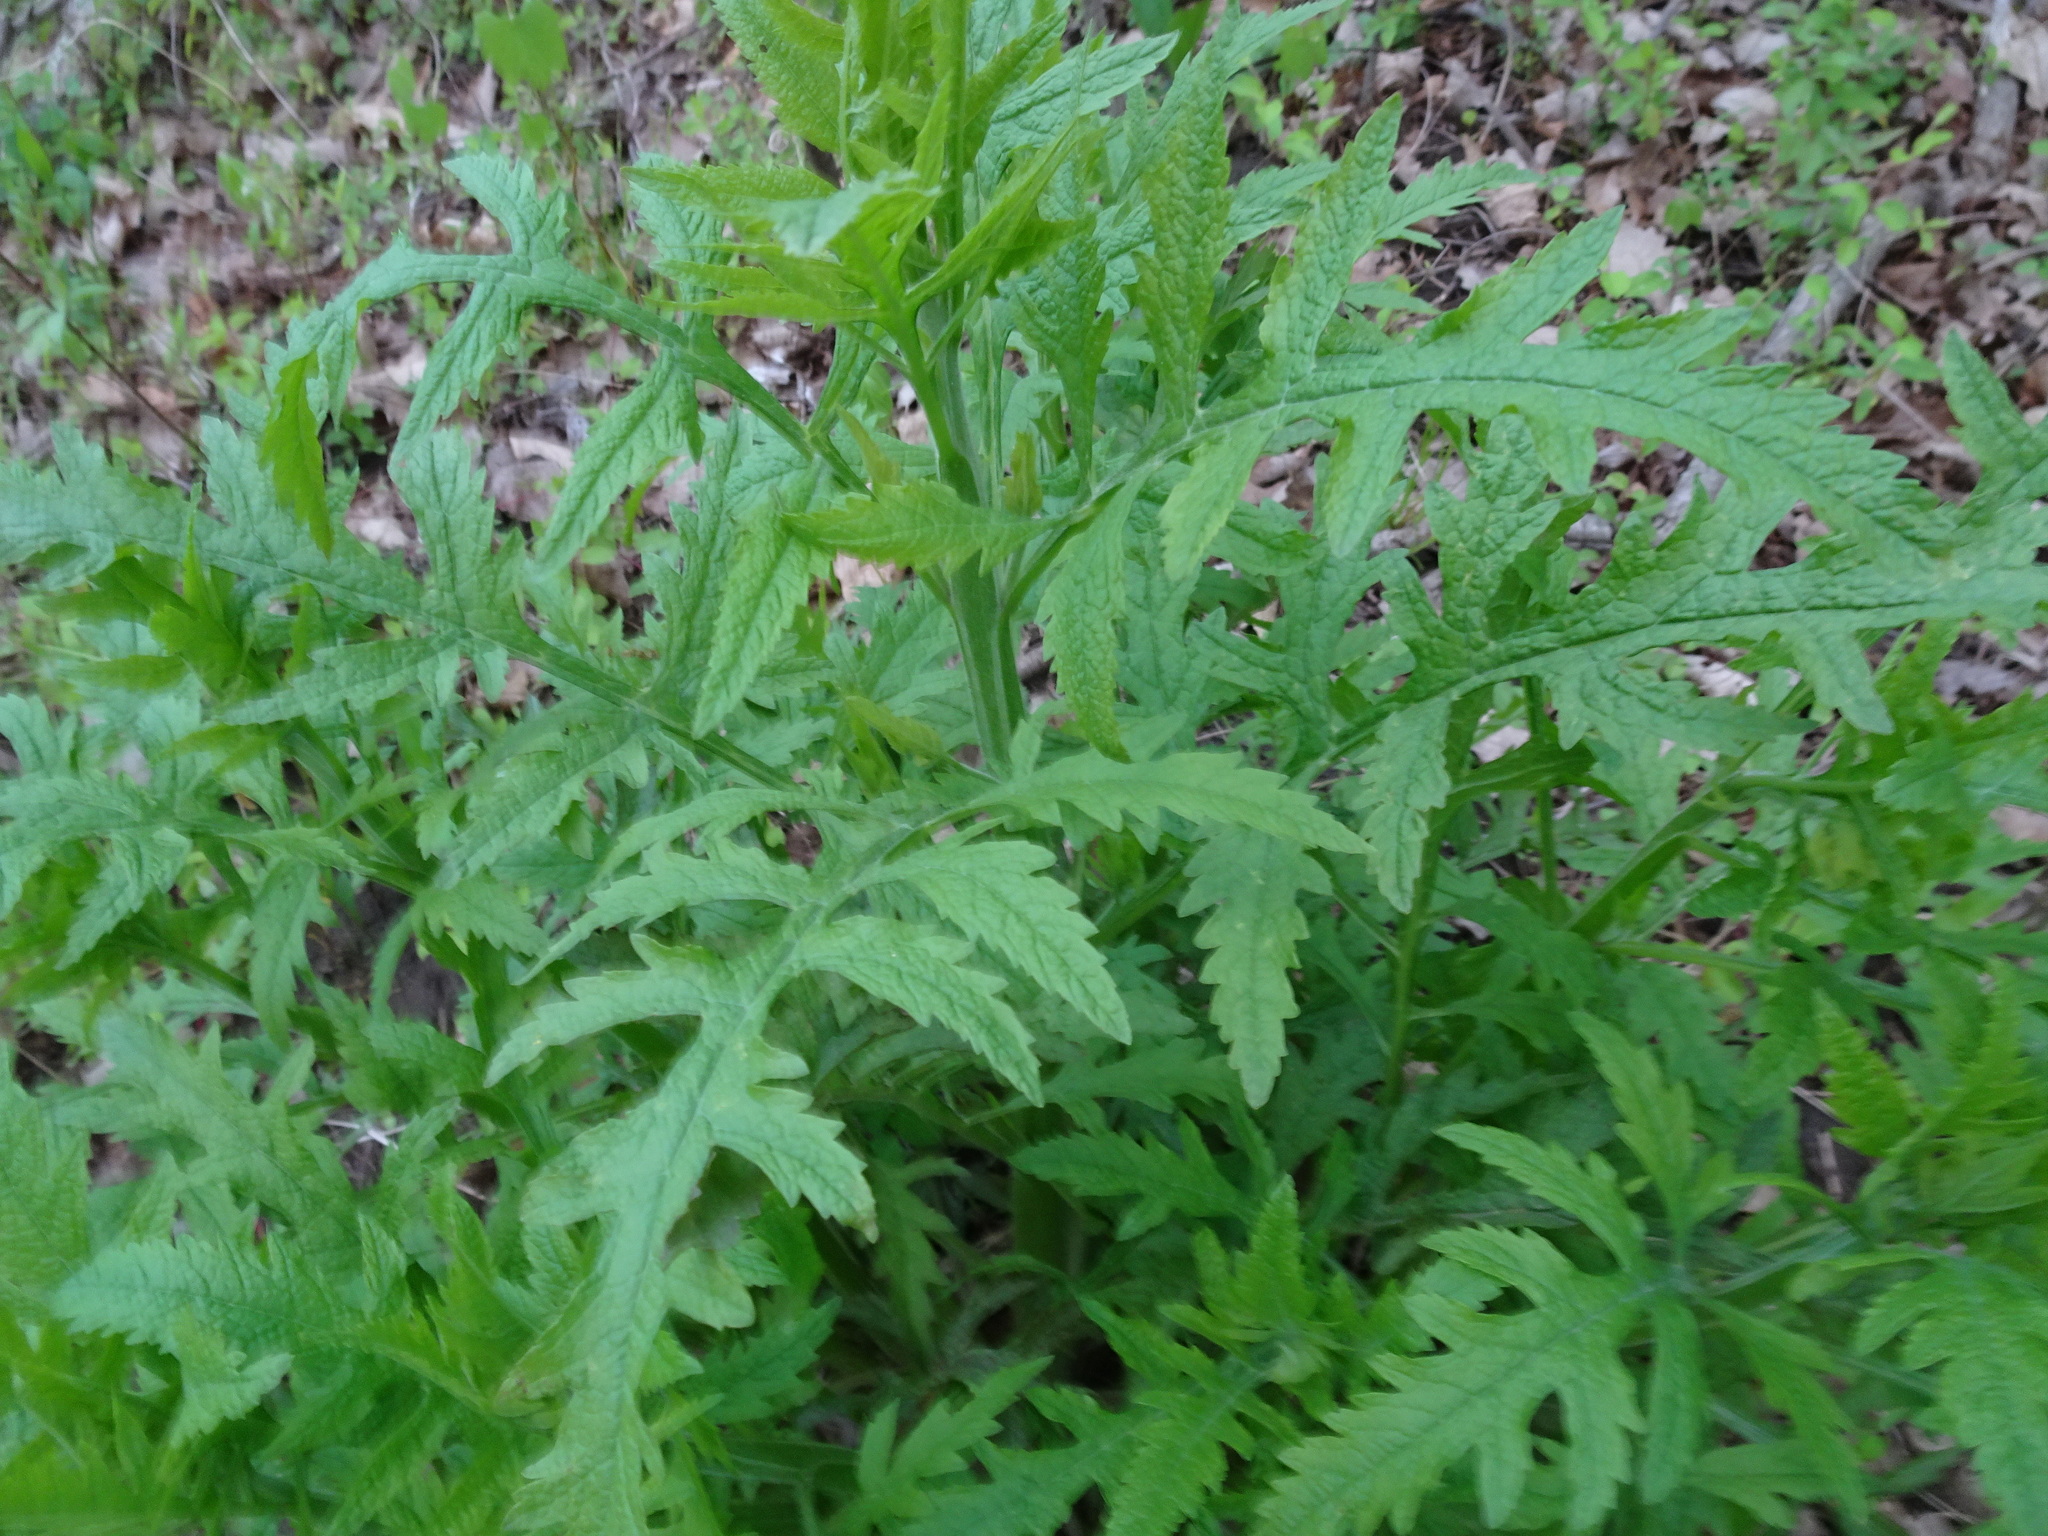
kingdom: Plantae
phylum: Tracheophyta
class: Magnoliopsida
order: Lamiales
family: Orobanchaceae
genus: Dasistoma
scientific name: Dasistoma macrophyllum
